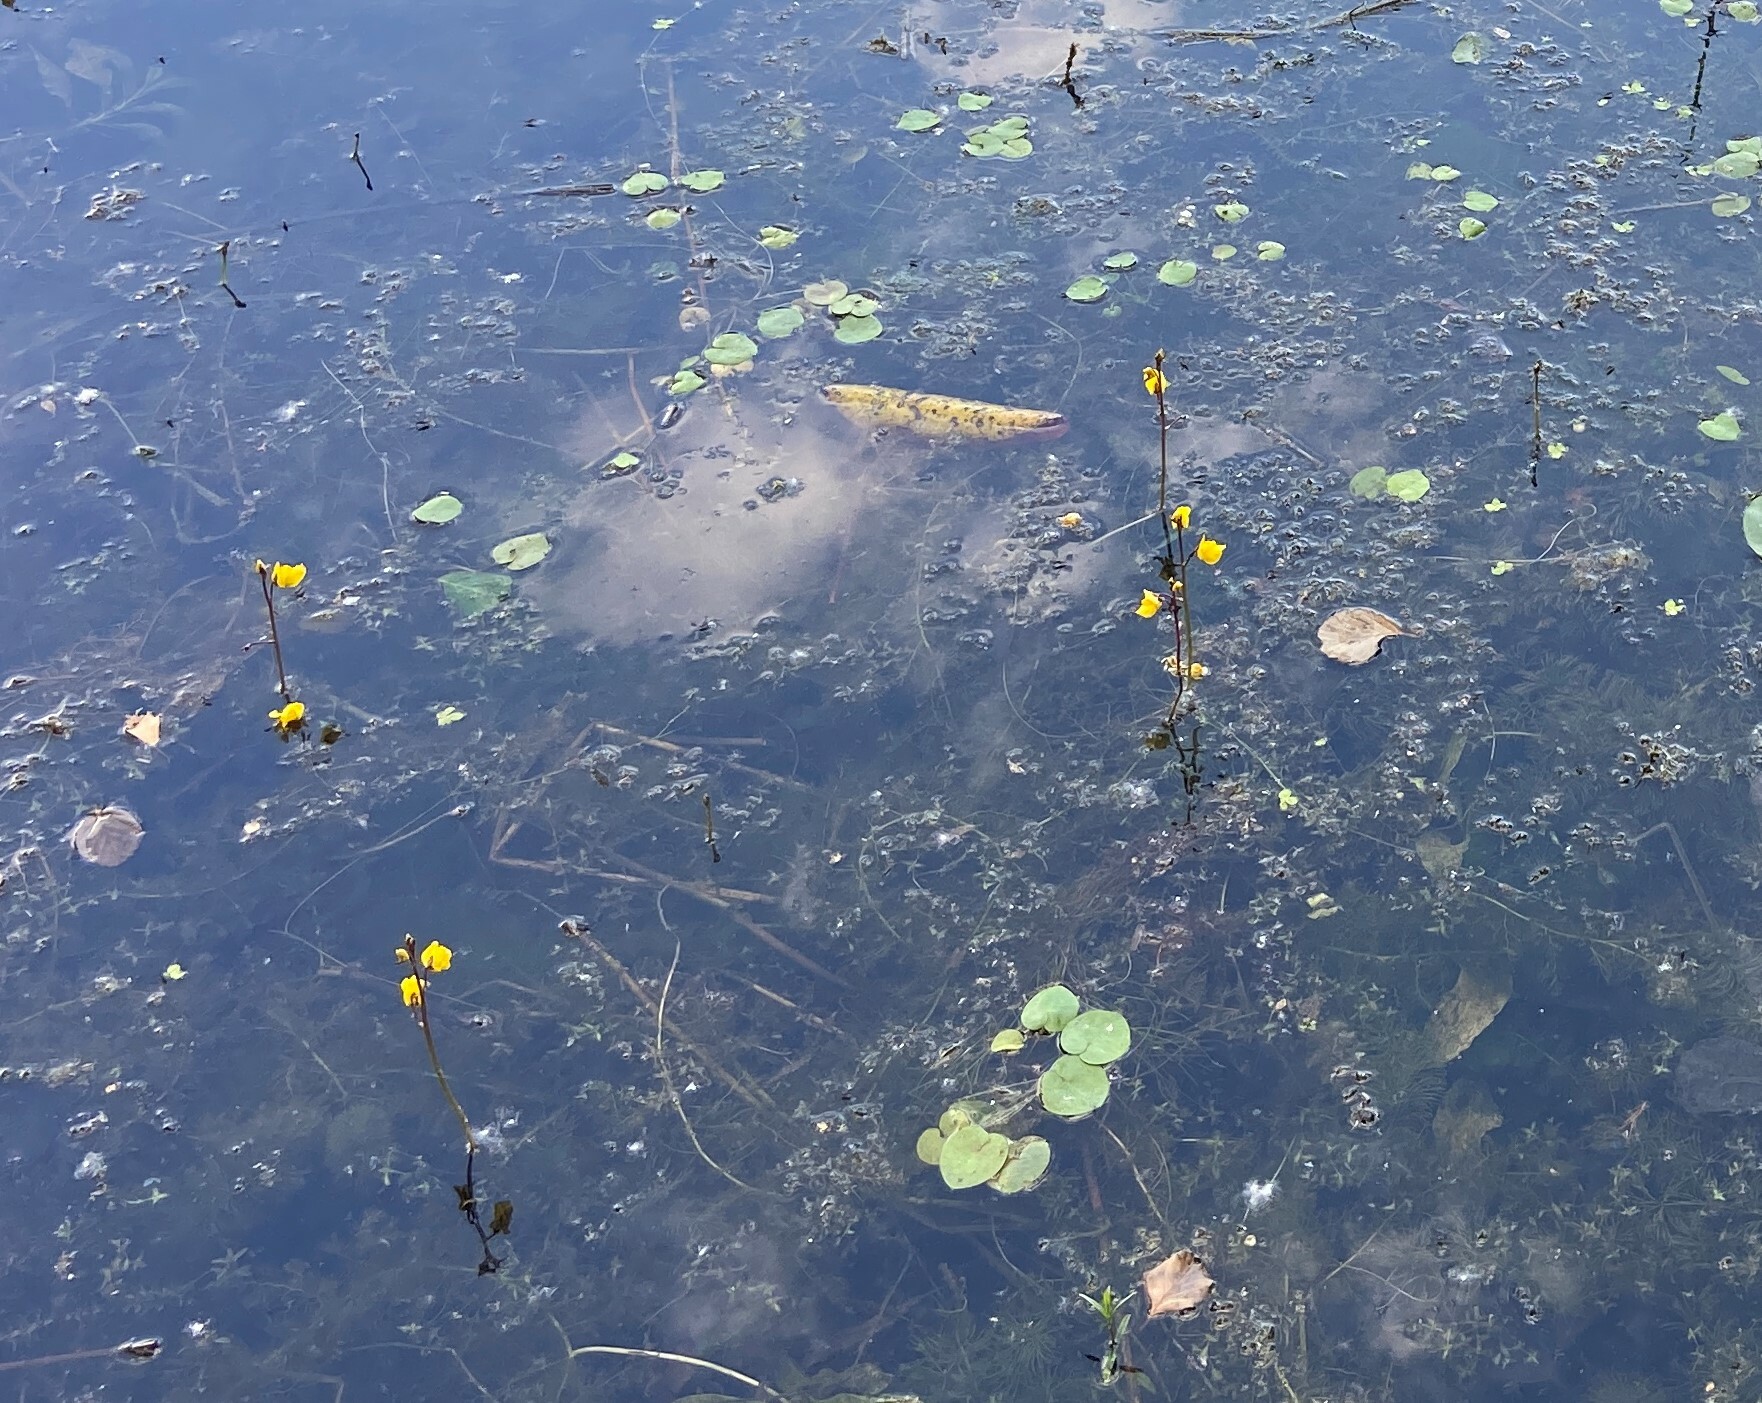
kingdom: Plantae
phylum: Tracheophyta
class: Magnoliopsida
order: Lamiales
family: Lentibulariaceae
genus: Utricularia
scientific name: Utricularia vulgaris
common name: Greater bladderwort
